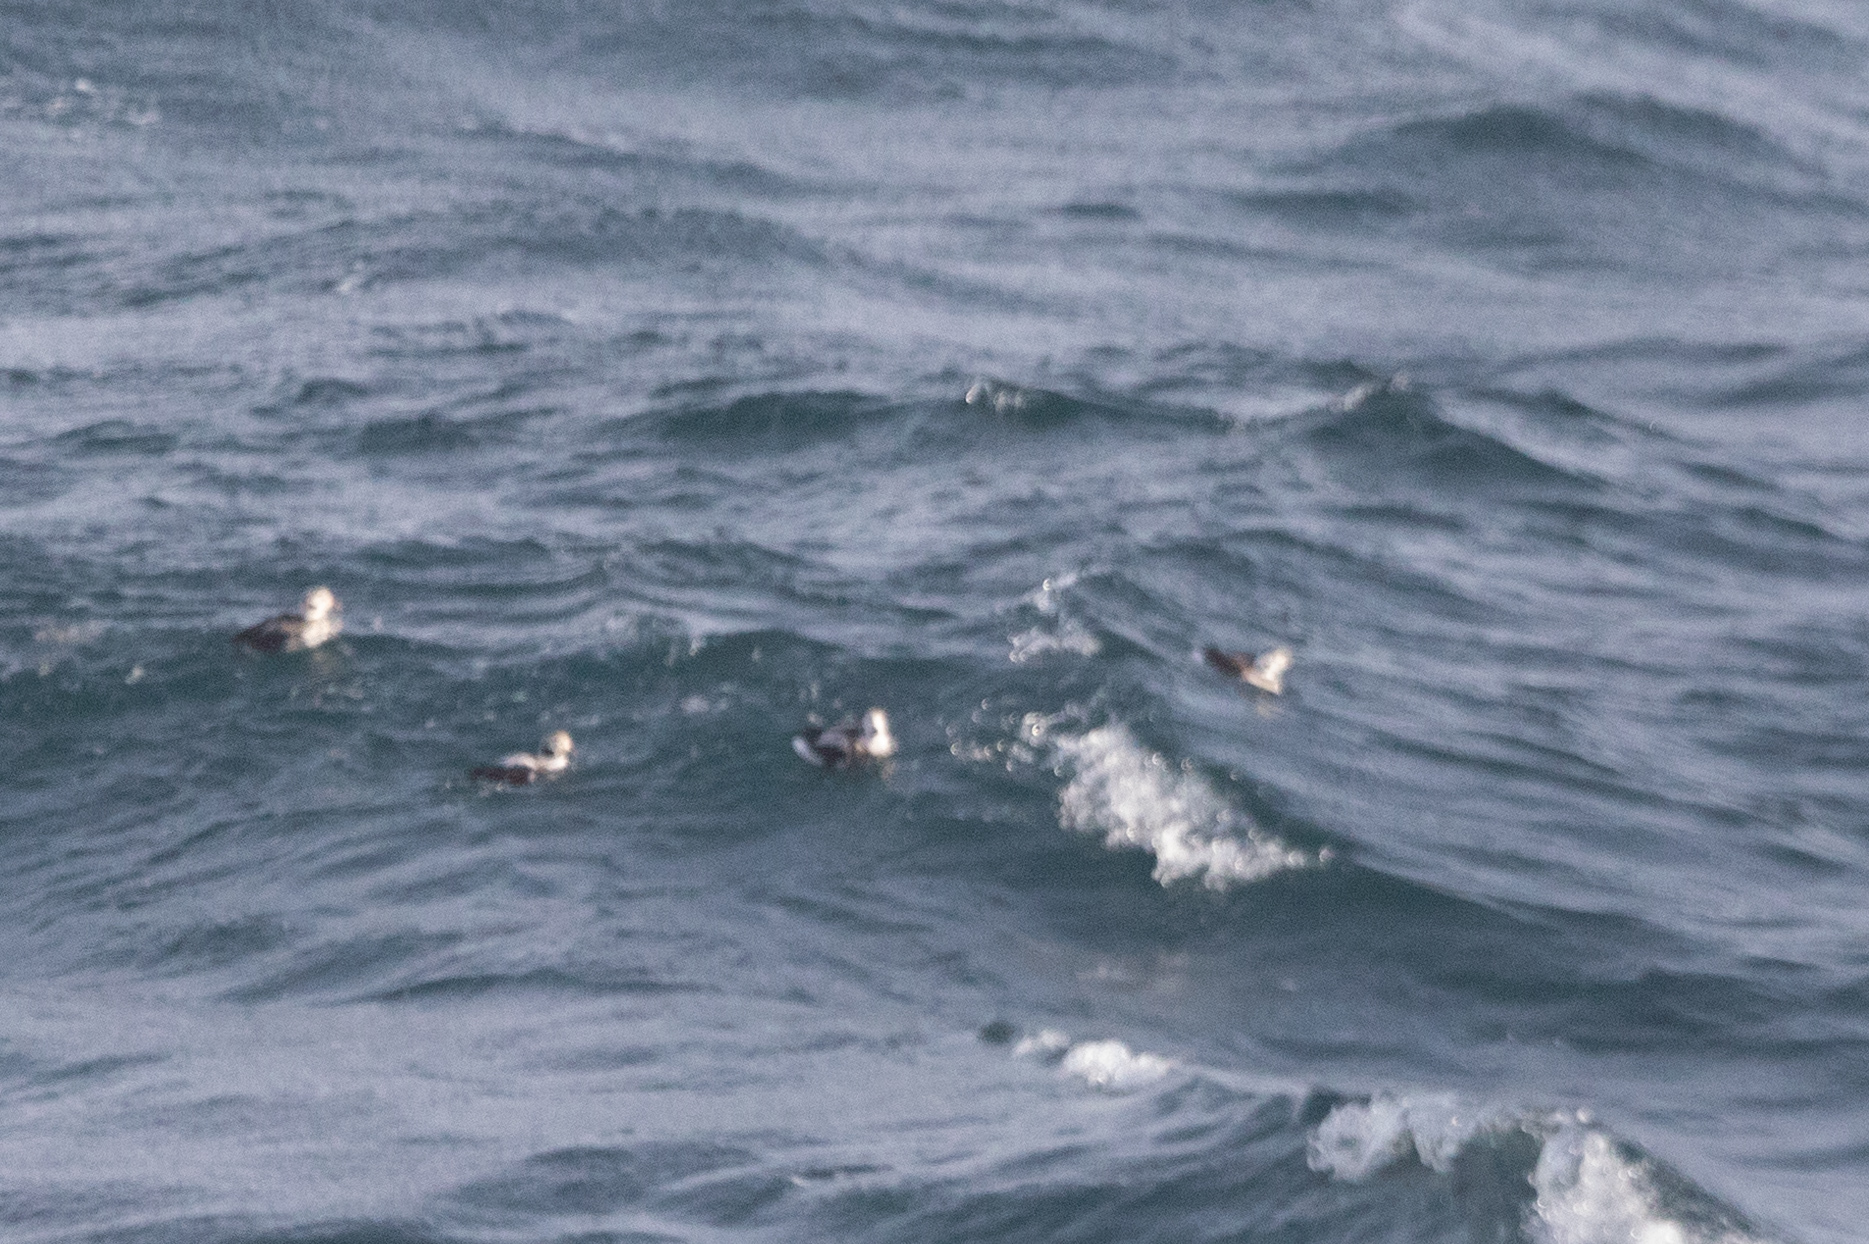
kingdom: Animalia
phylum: Chordata
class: Aves
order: Anseriformes
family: Anatidae
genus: Clangula
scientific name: Clangula hyemalis
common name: Long-tailed duck
